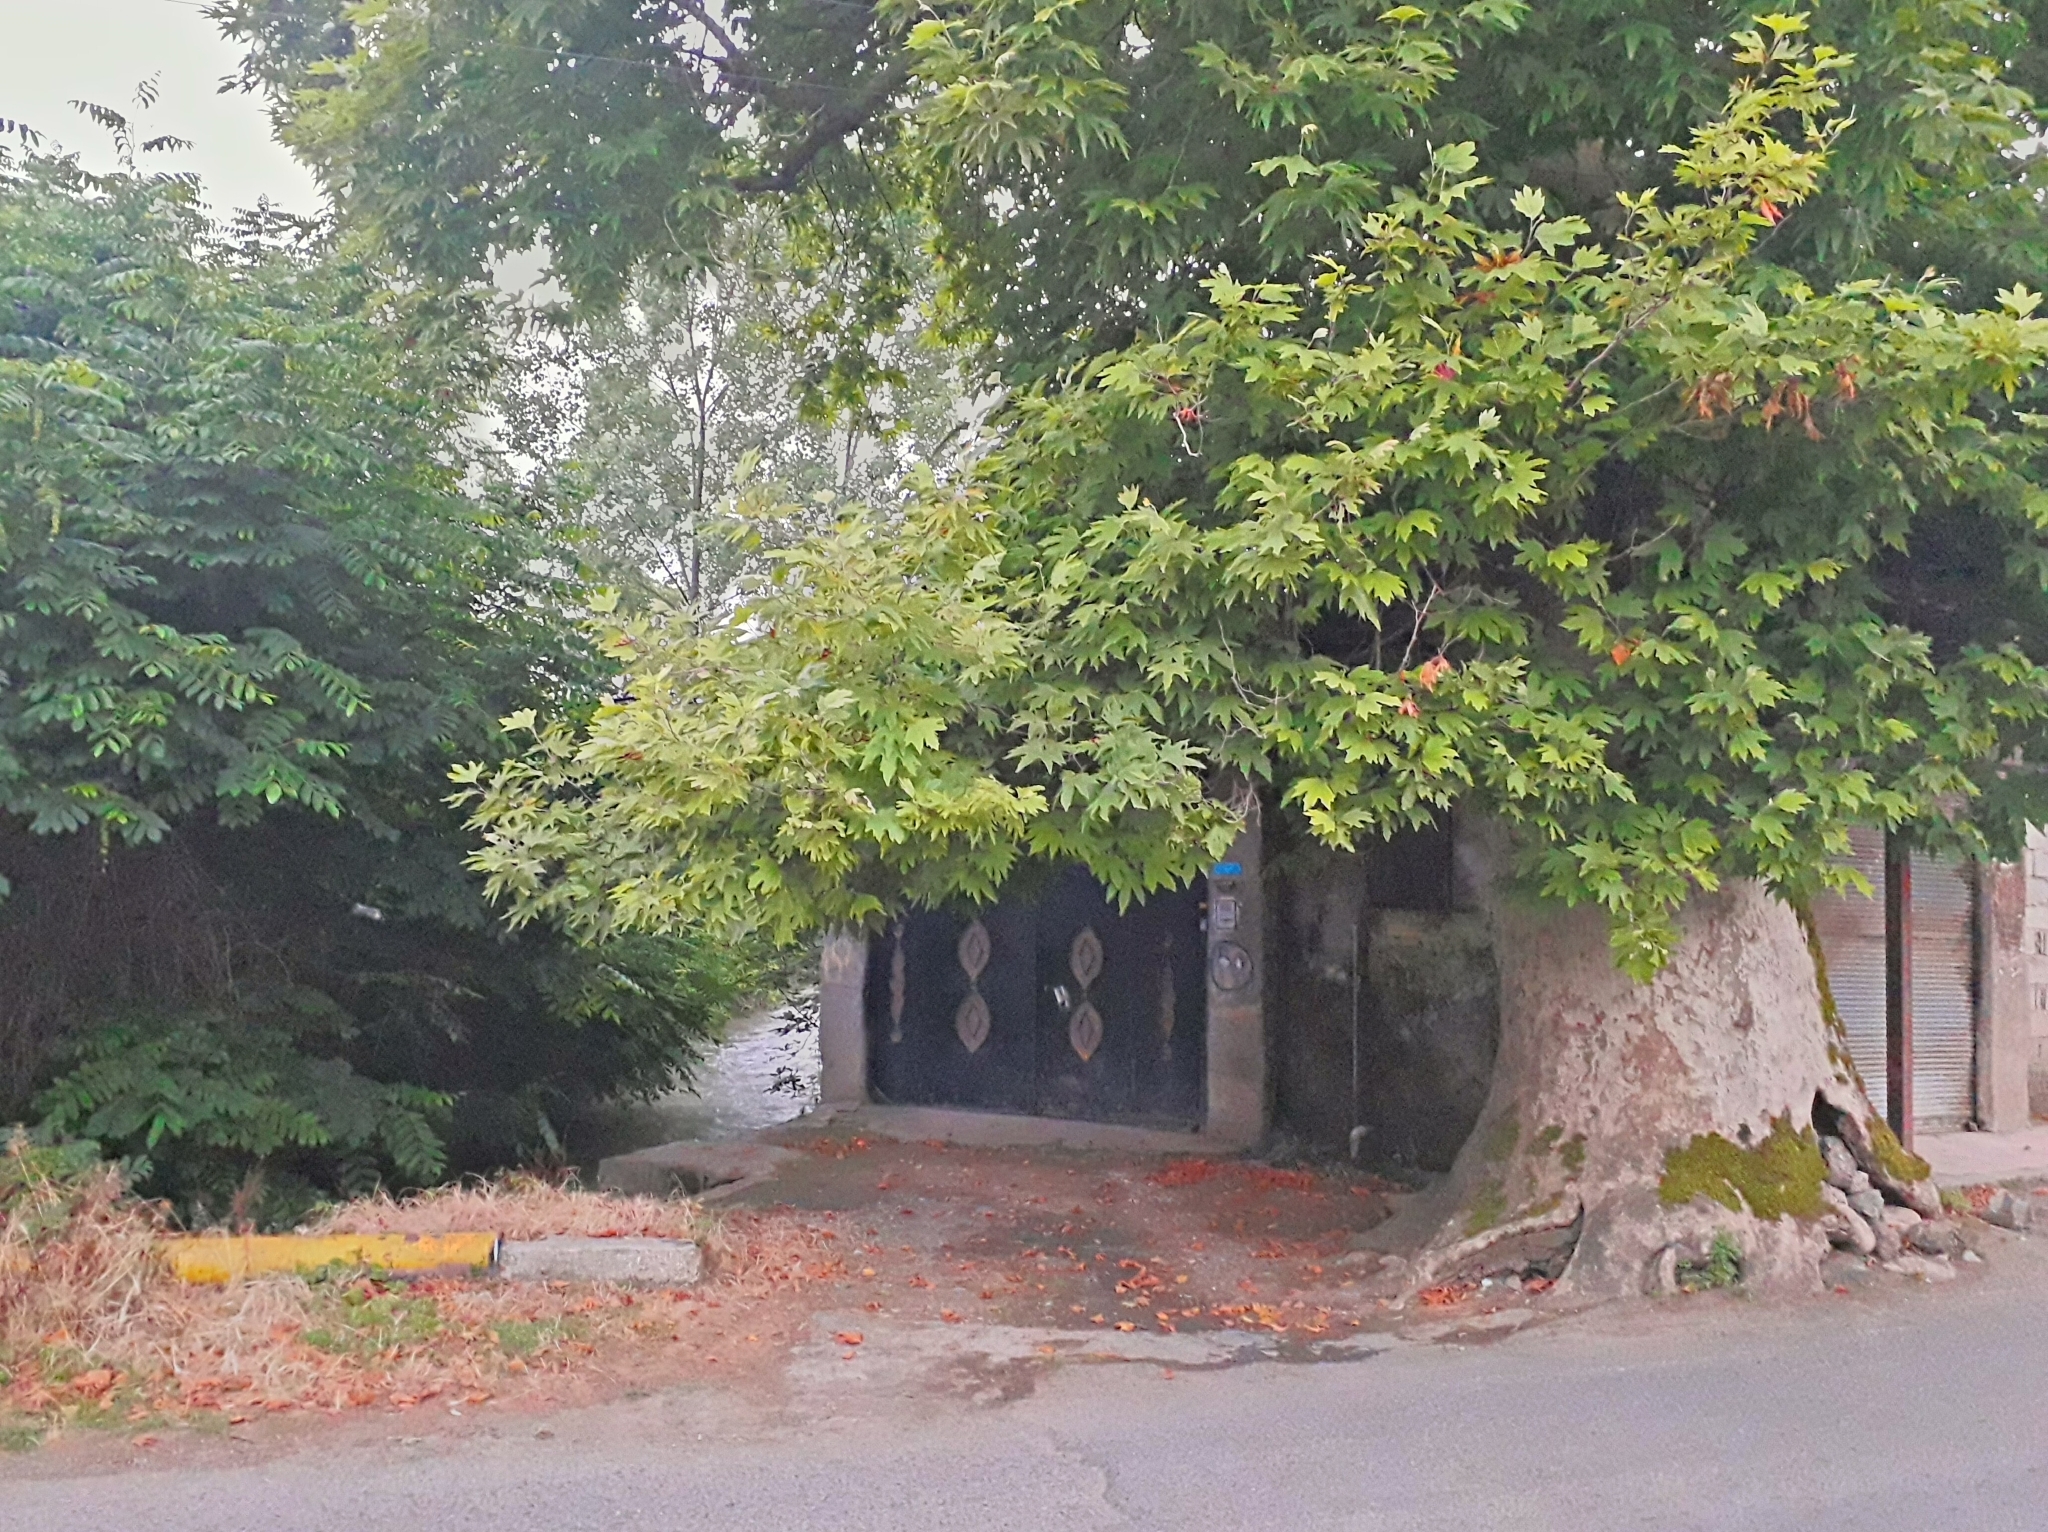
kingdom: Plantae
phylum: Tracheophyta
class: Magnoliopsida
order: Proteales
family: Platanaceae
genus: Platanus
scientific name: Platanus orientalis
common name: Oriental plane
